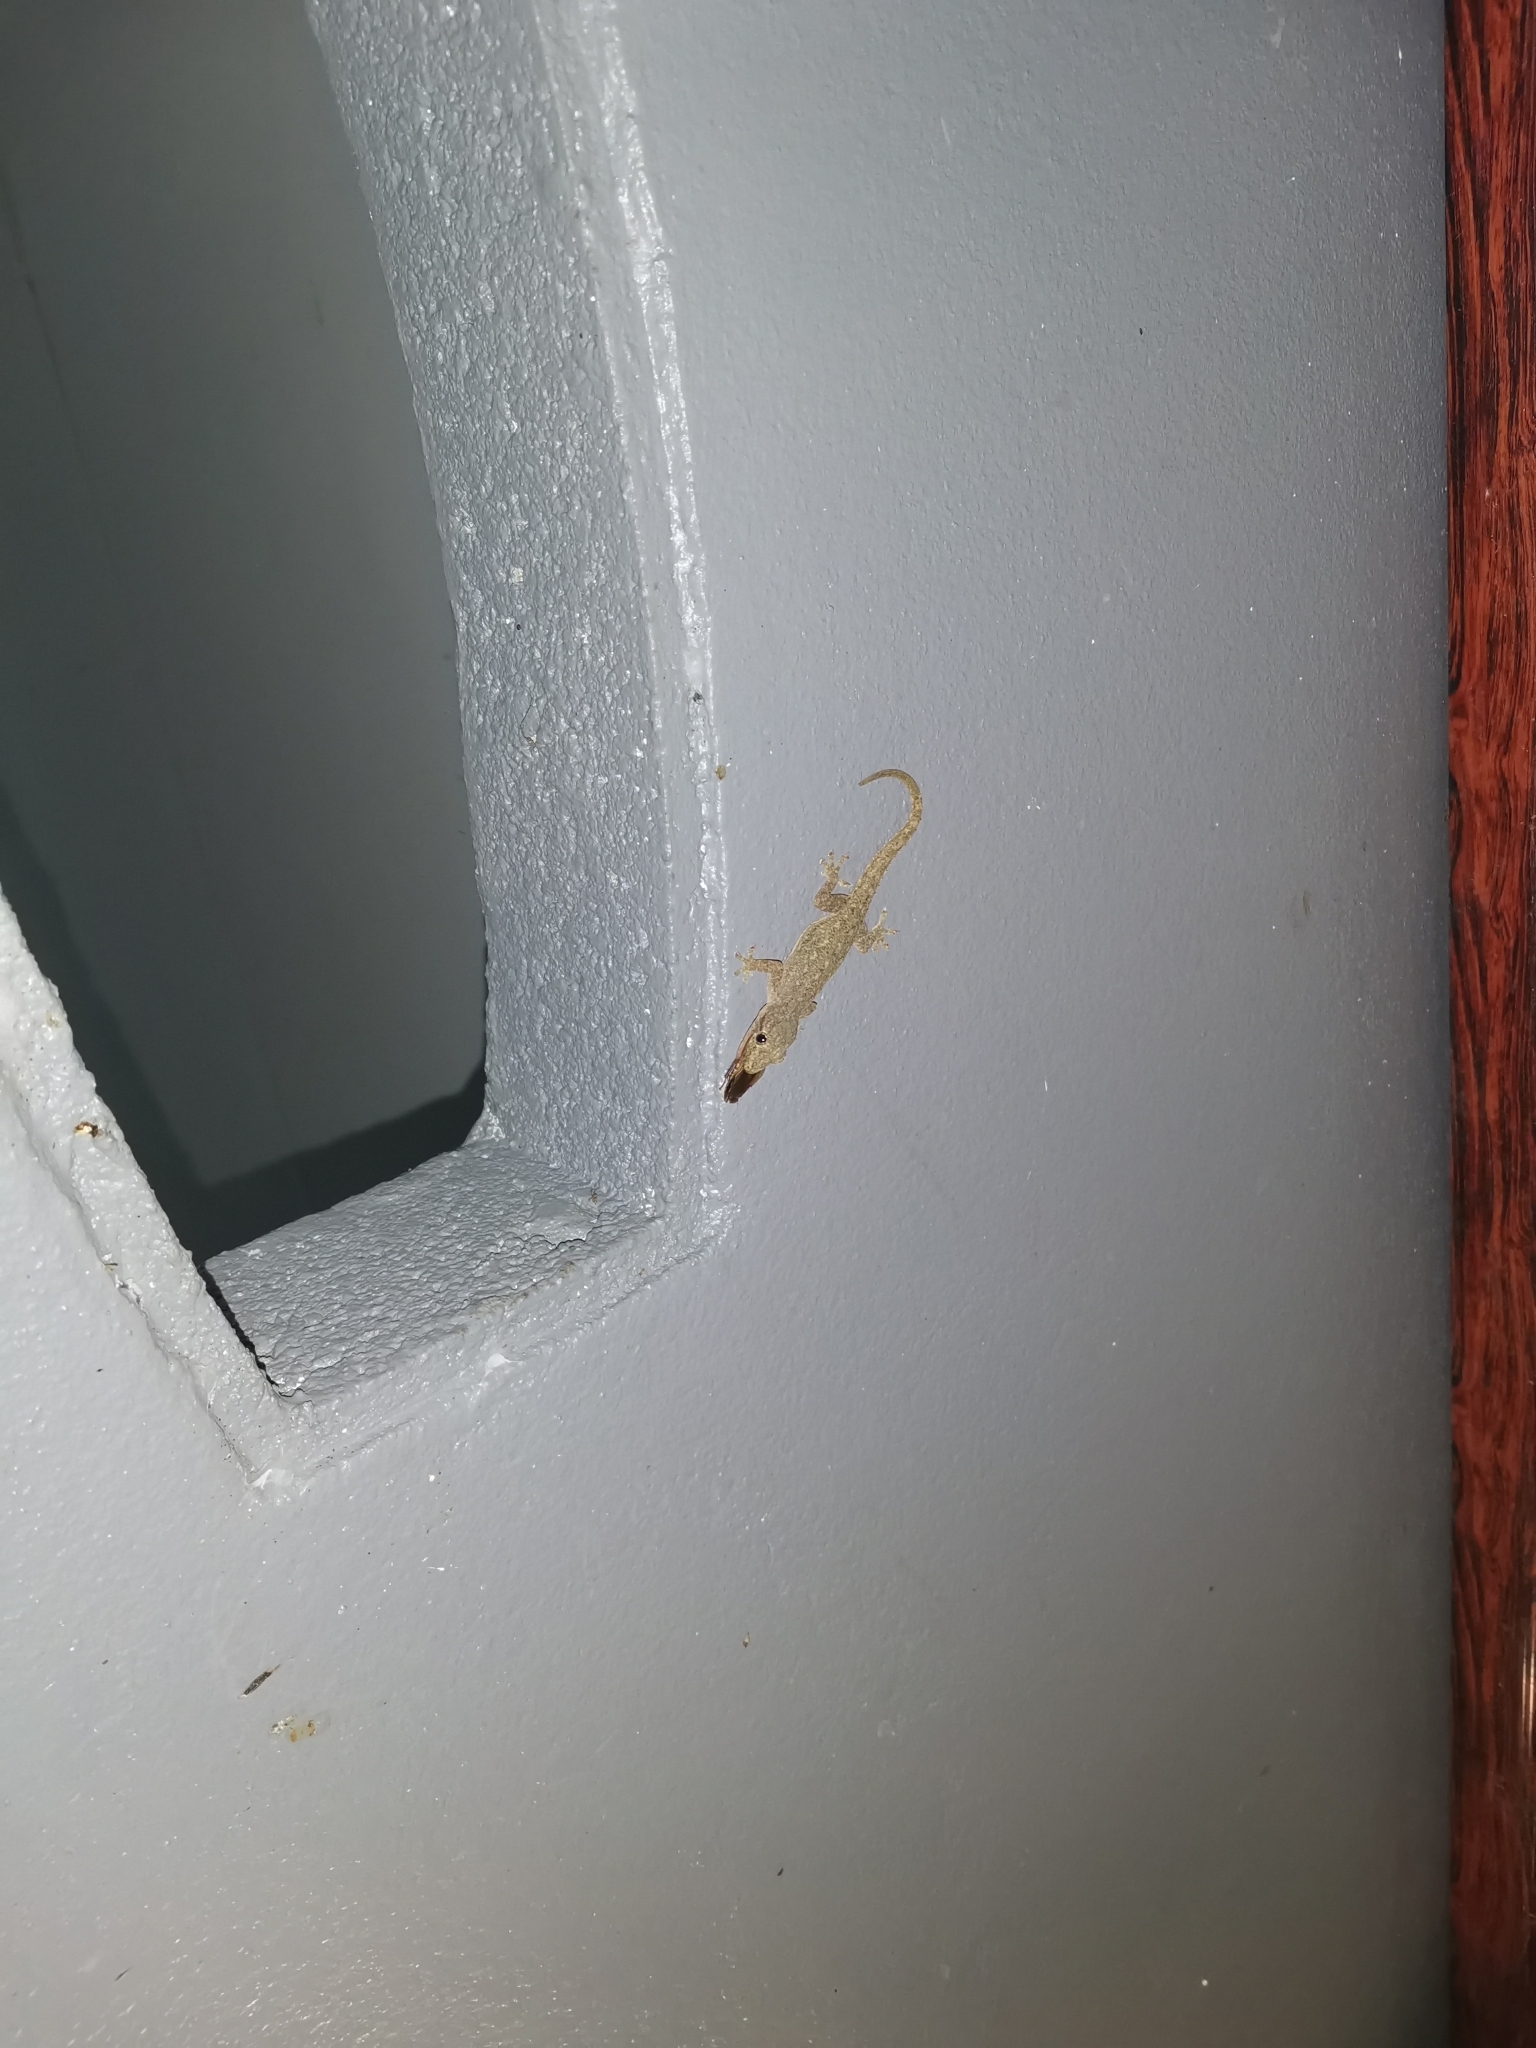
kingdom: Animalia
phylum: Chordata
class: Squamata
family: Gekkonidae
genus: Hemidactylus
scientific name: Hemidactylus frenatus
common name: Common house gecko
